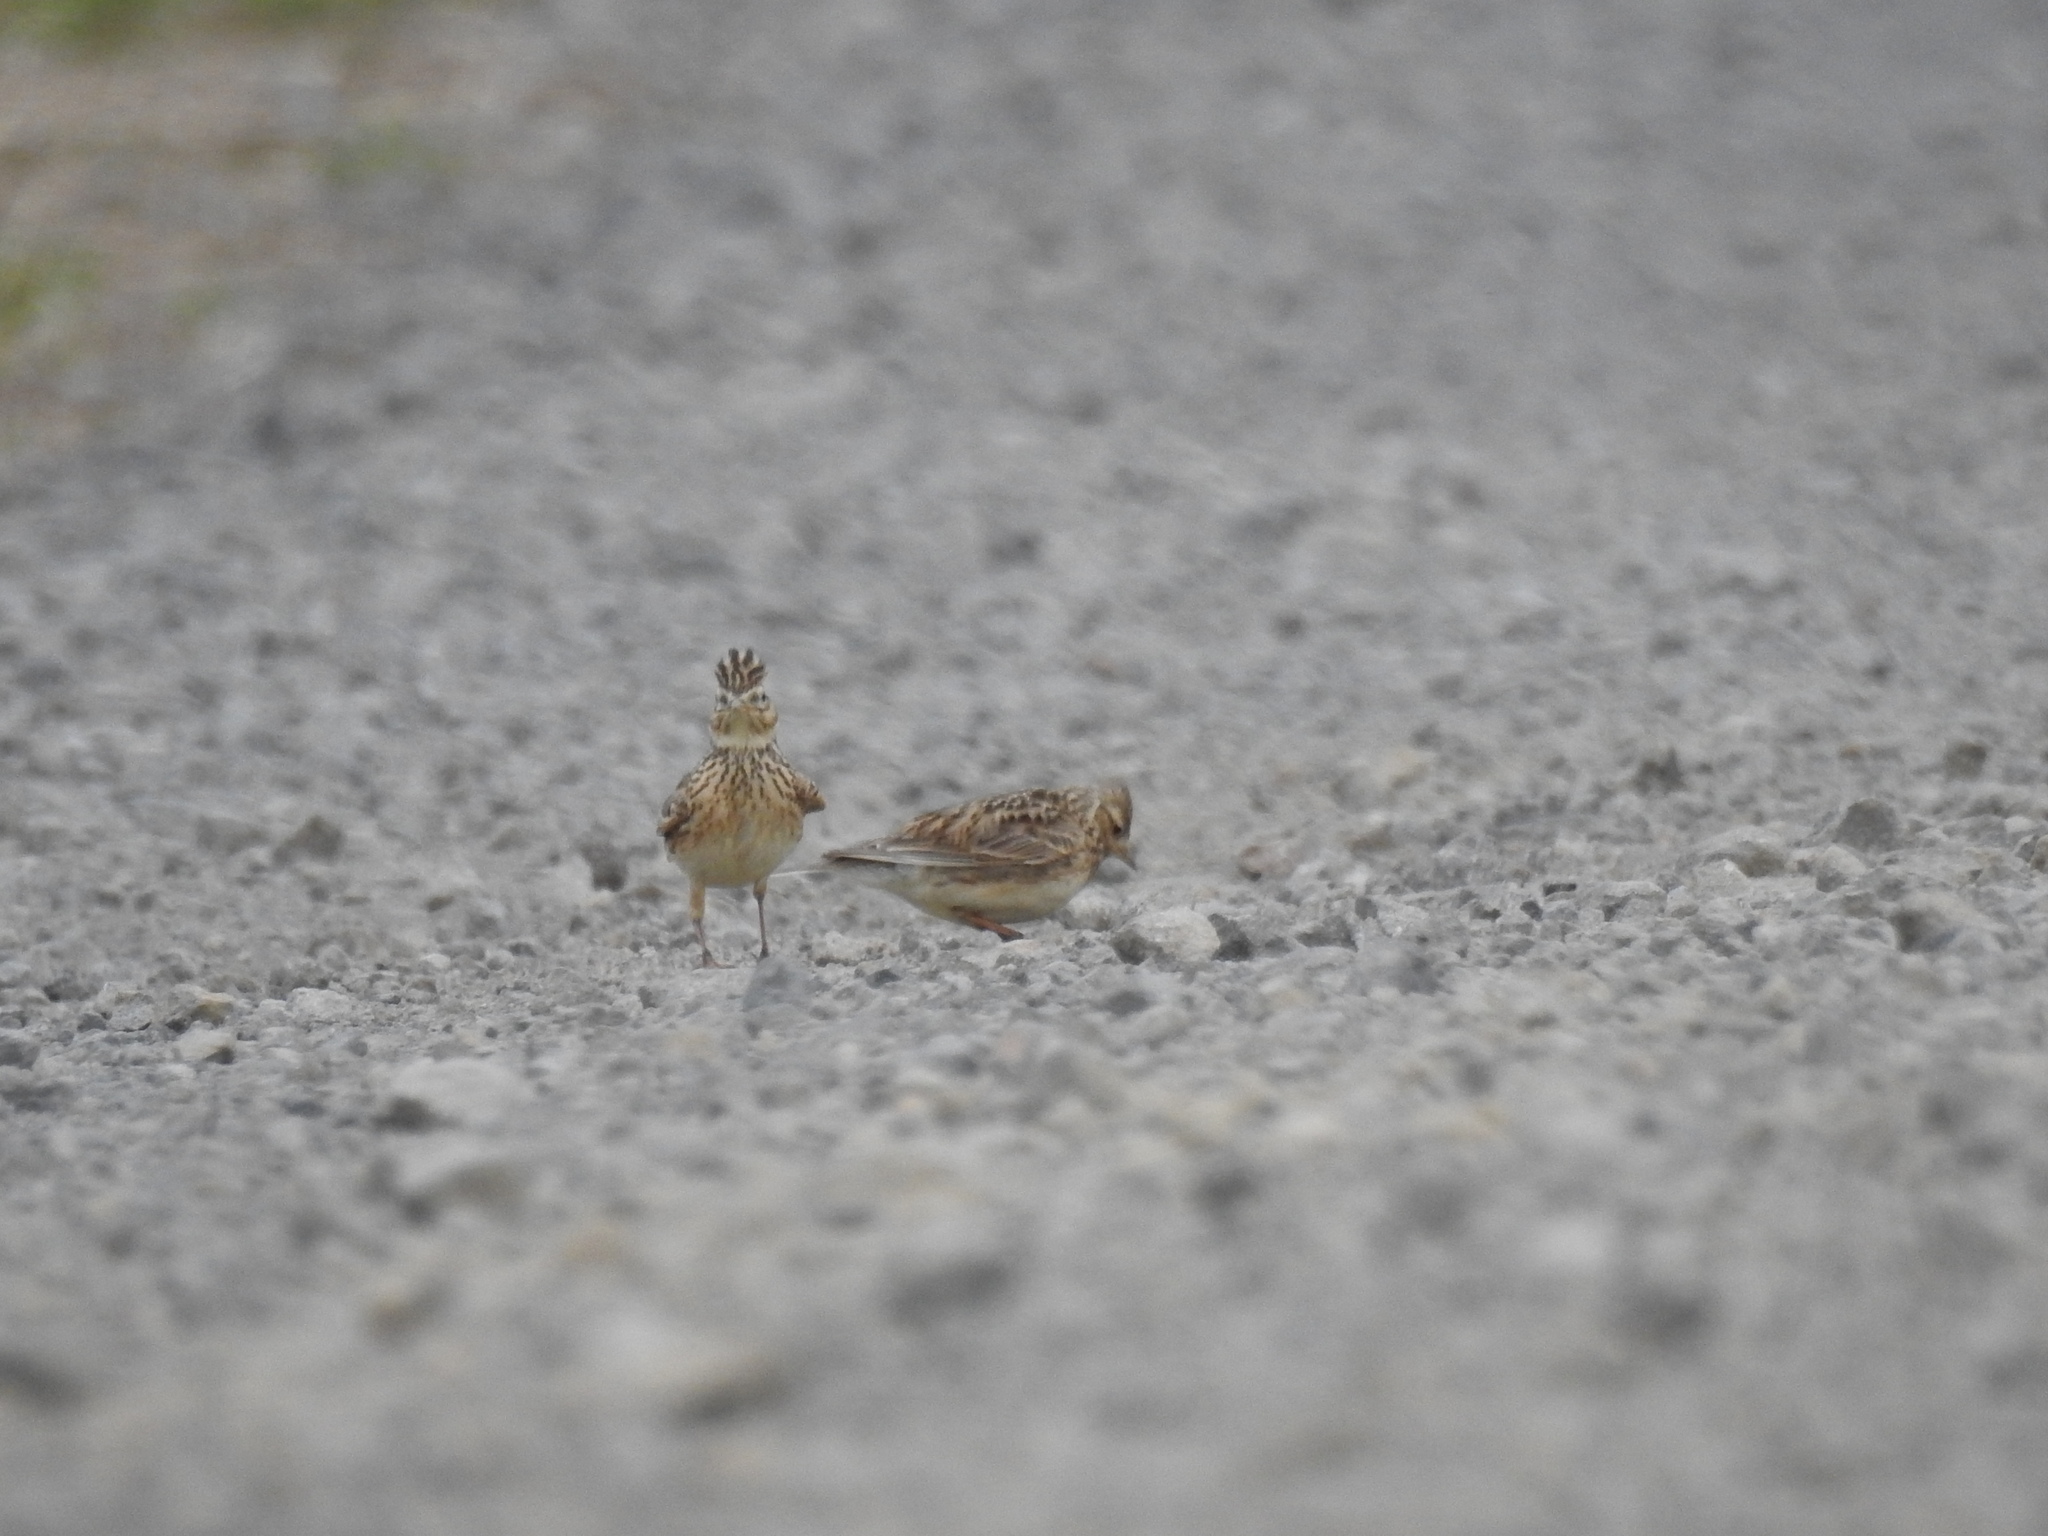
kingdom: Animalia
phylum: Chordata
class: Aves
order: Passeriformes
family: Alaudidae
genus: Alauda
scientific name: Alauda arvensis
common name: Eurasian skylark
